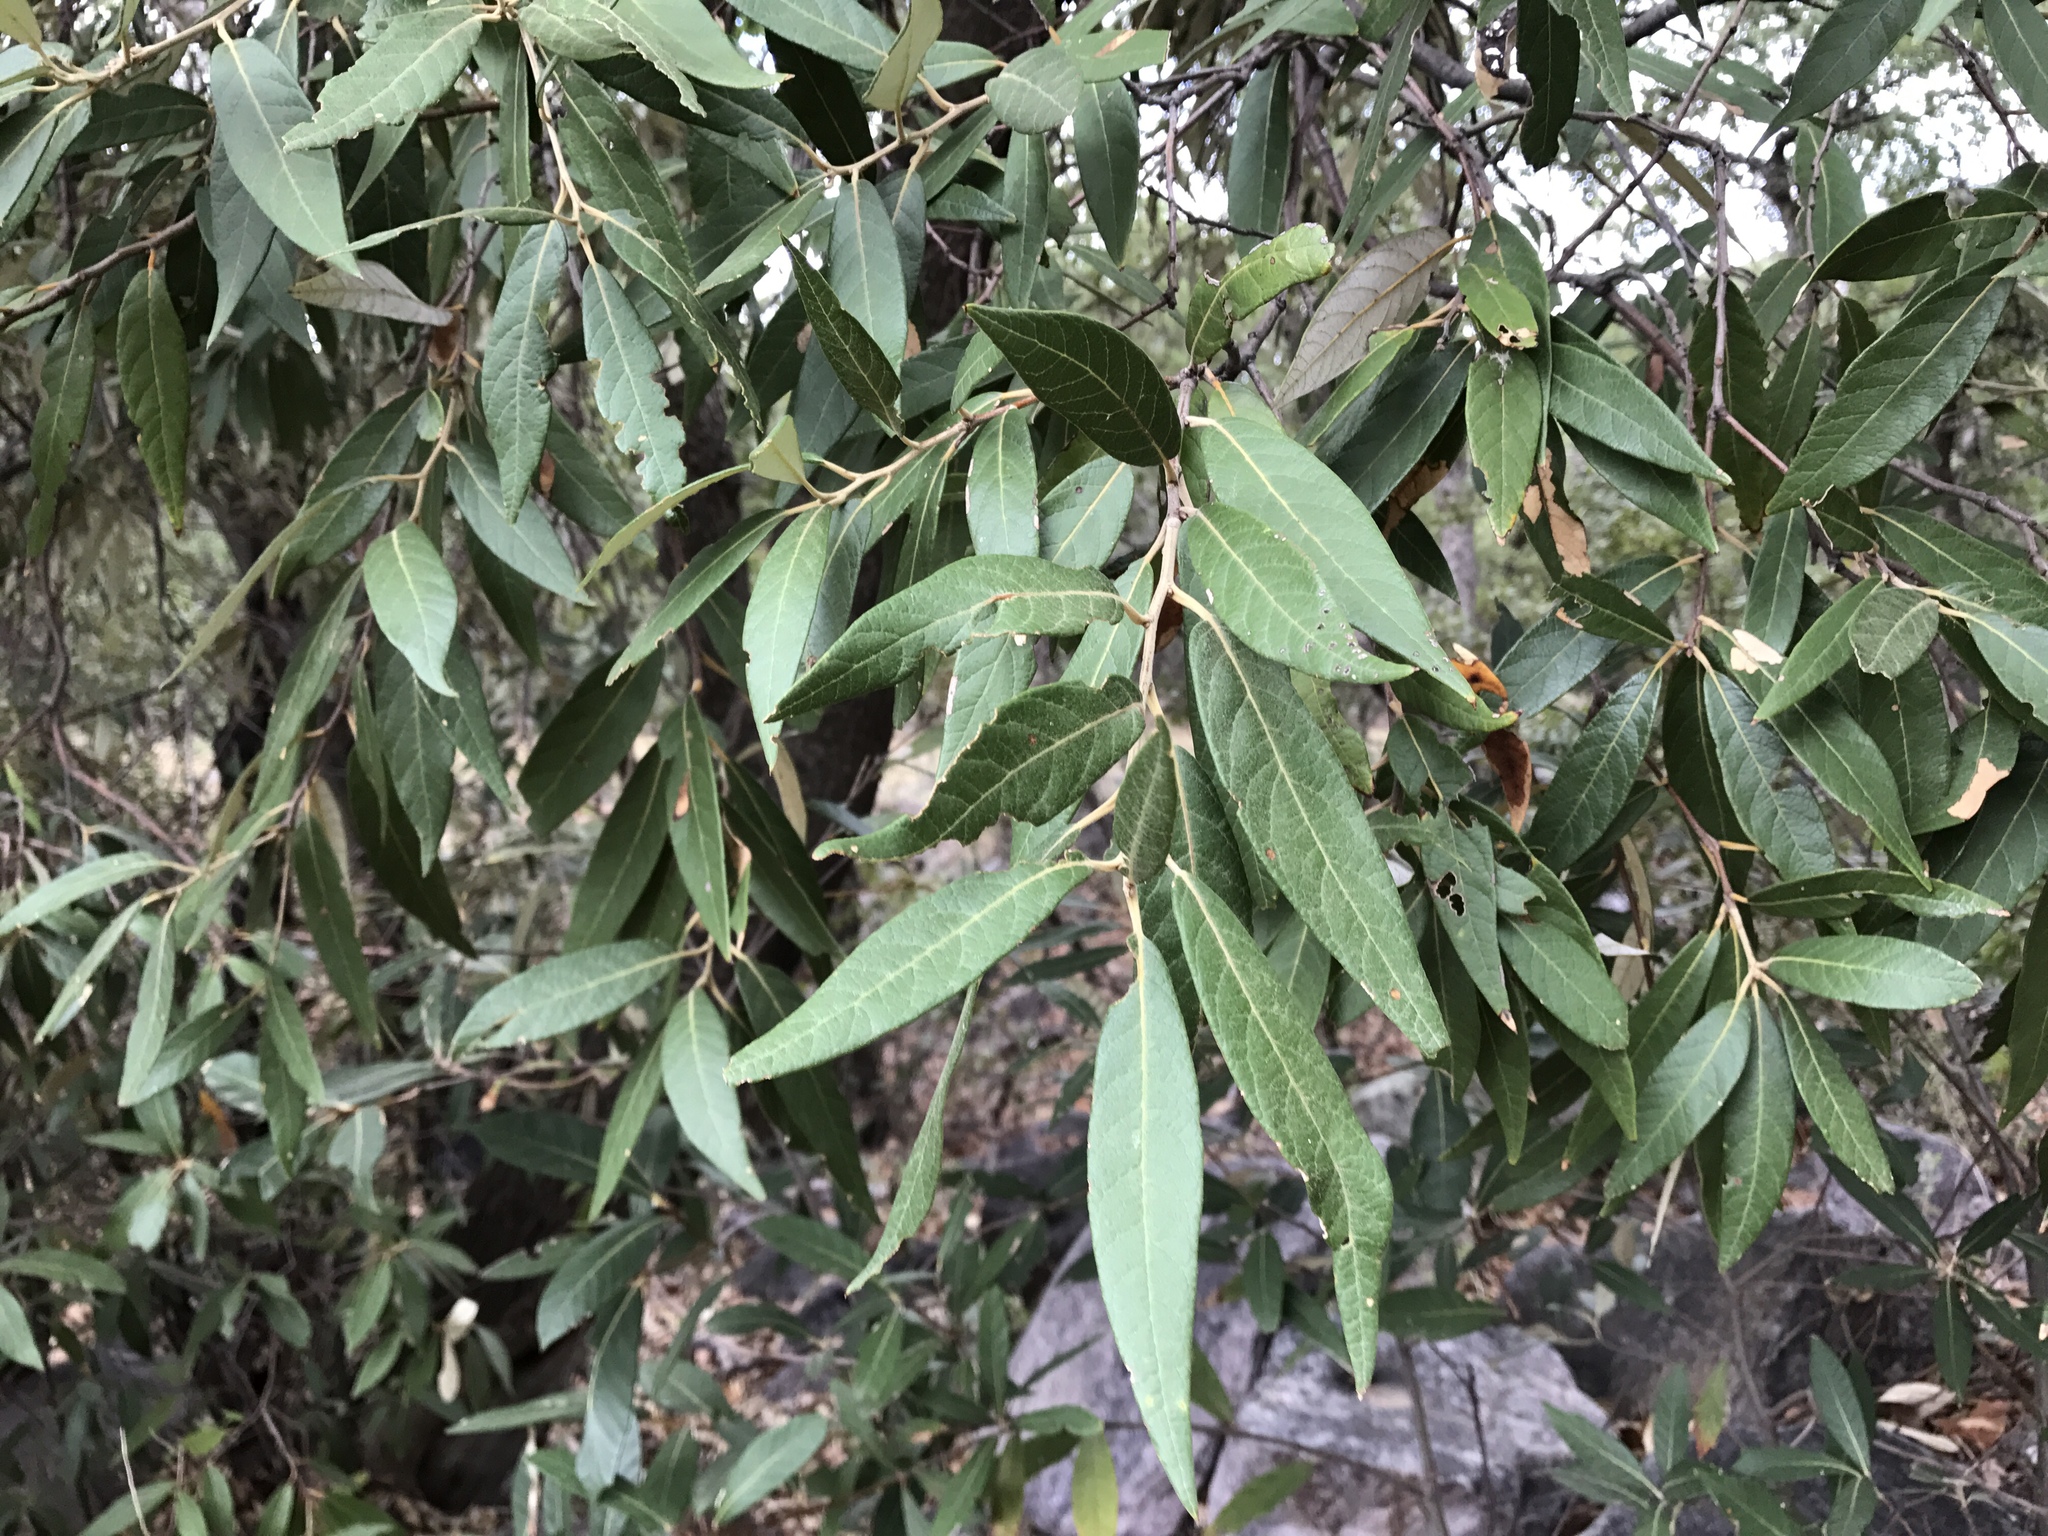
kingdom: Plantae
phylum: Tracheophyta
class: Magnoliopsida
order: Fagales
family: Fagaceae
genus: Quercus
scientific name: Quercus hypoleucoides
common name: Silverleaf oak
